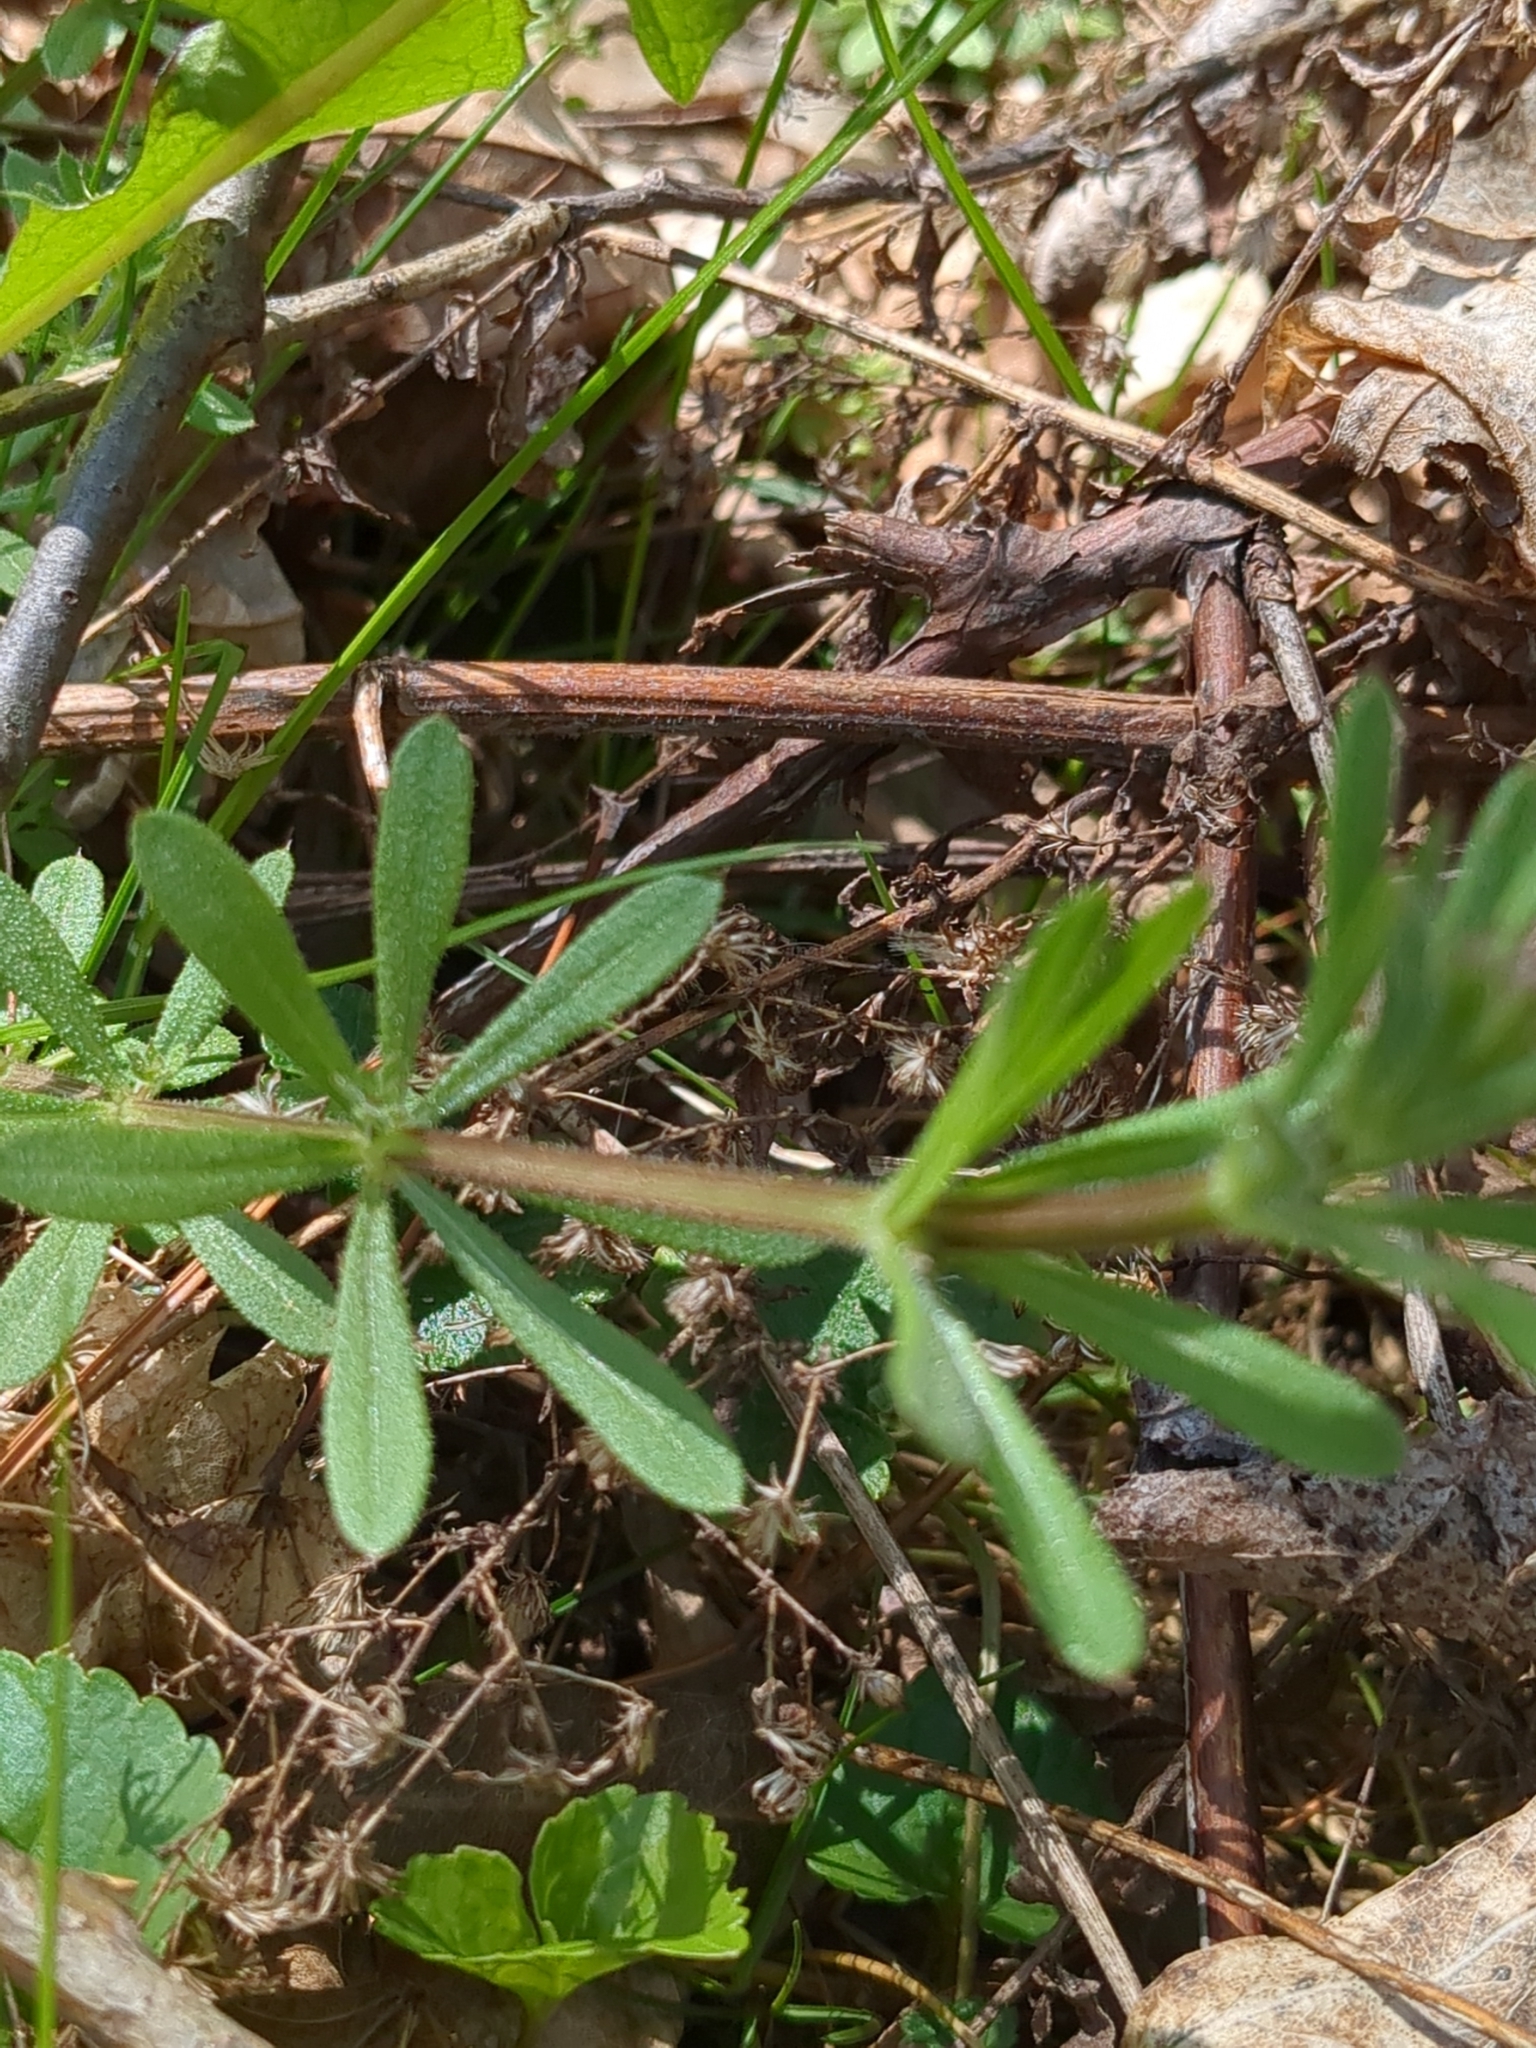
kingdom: Plantae
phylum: Tracheophyta
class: Magnoliopsida
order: Gentianales
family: Rubiaceae
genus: Galium
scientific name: Galium aparine
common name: Cleavers
